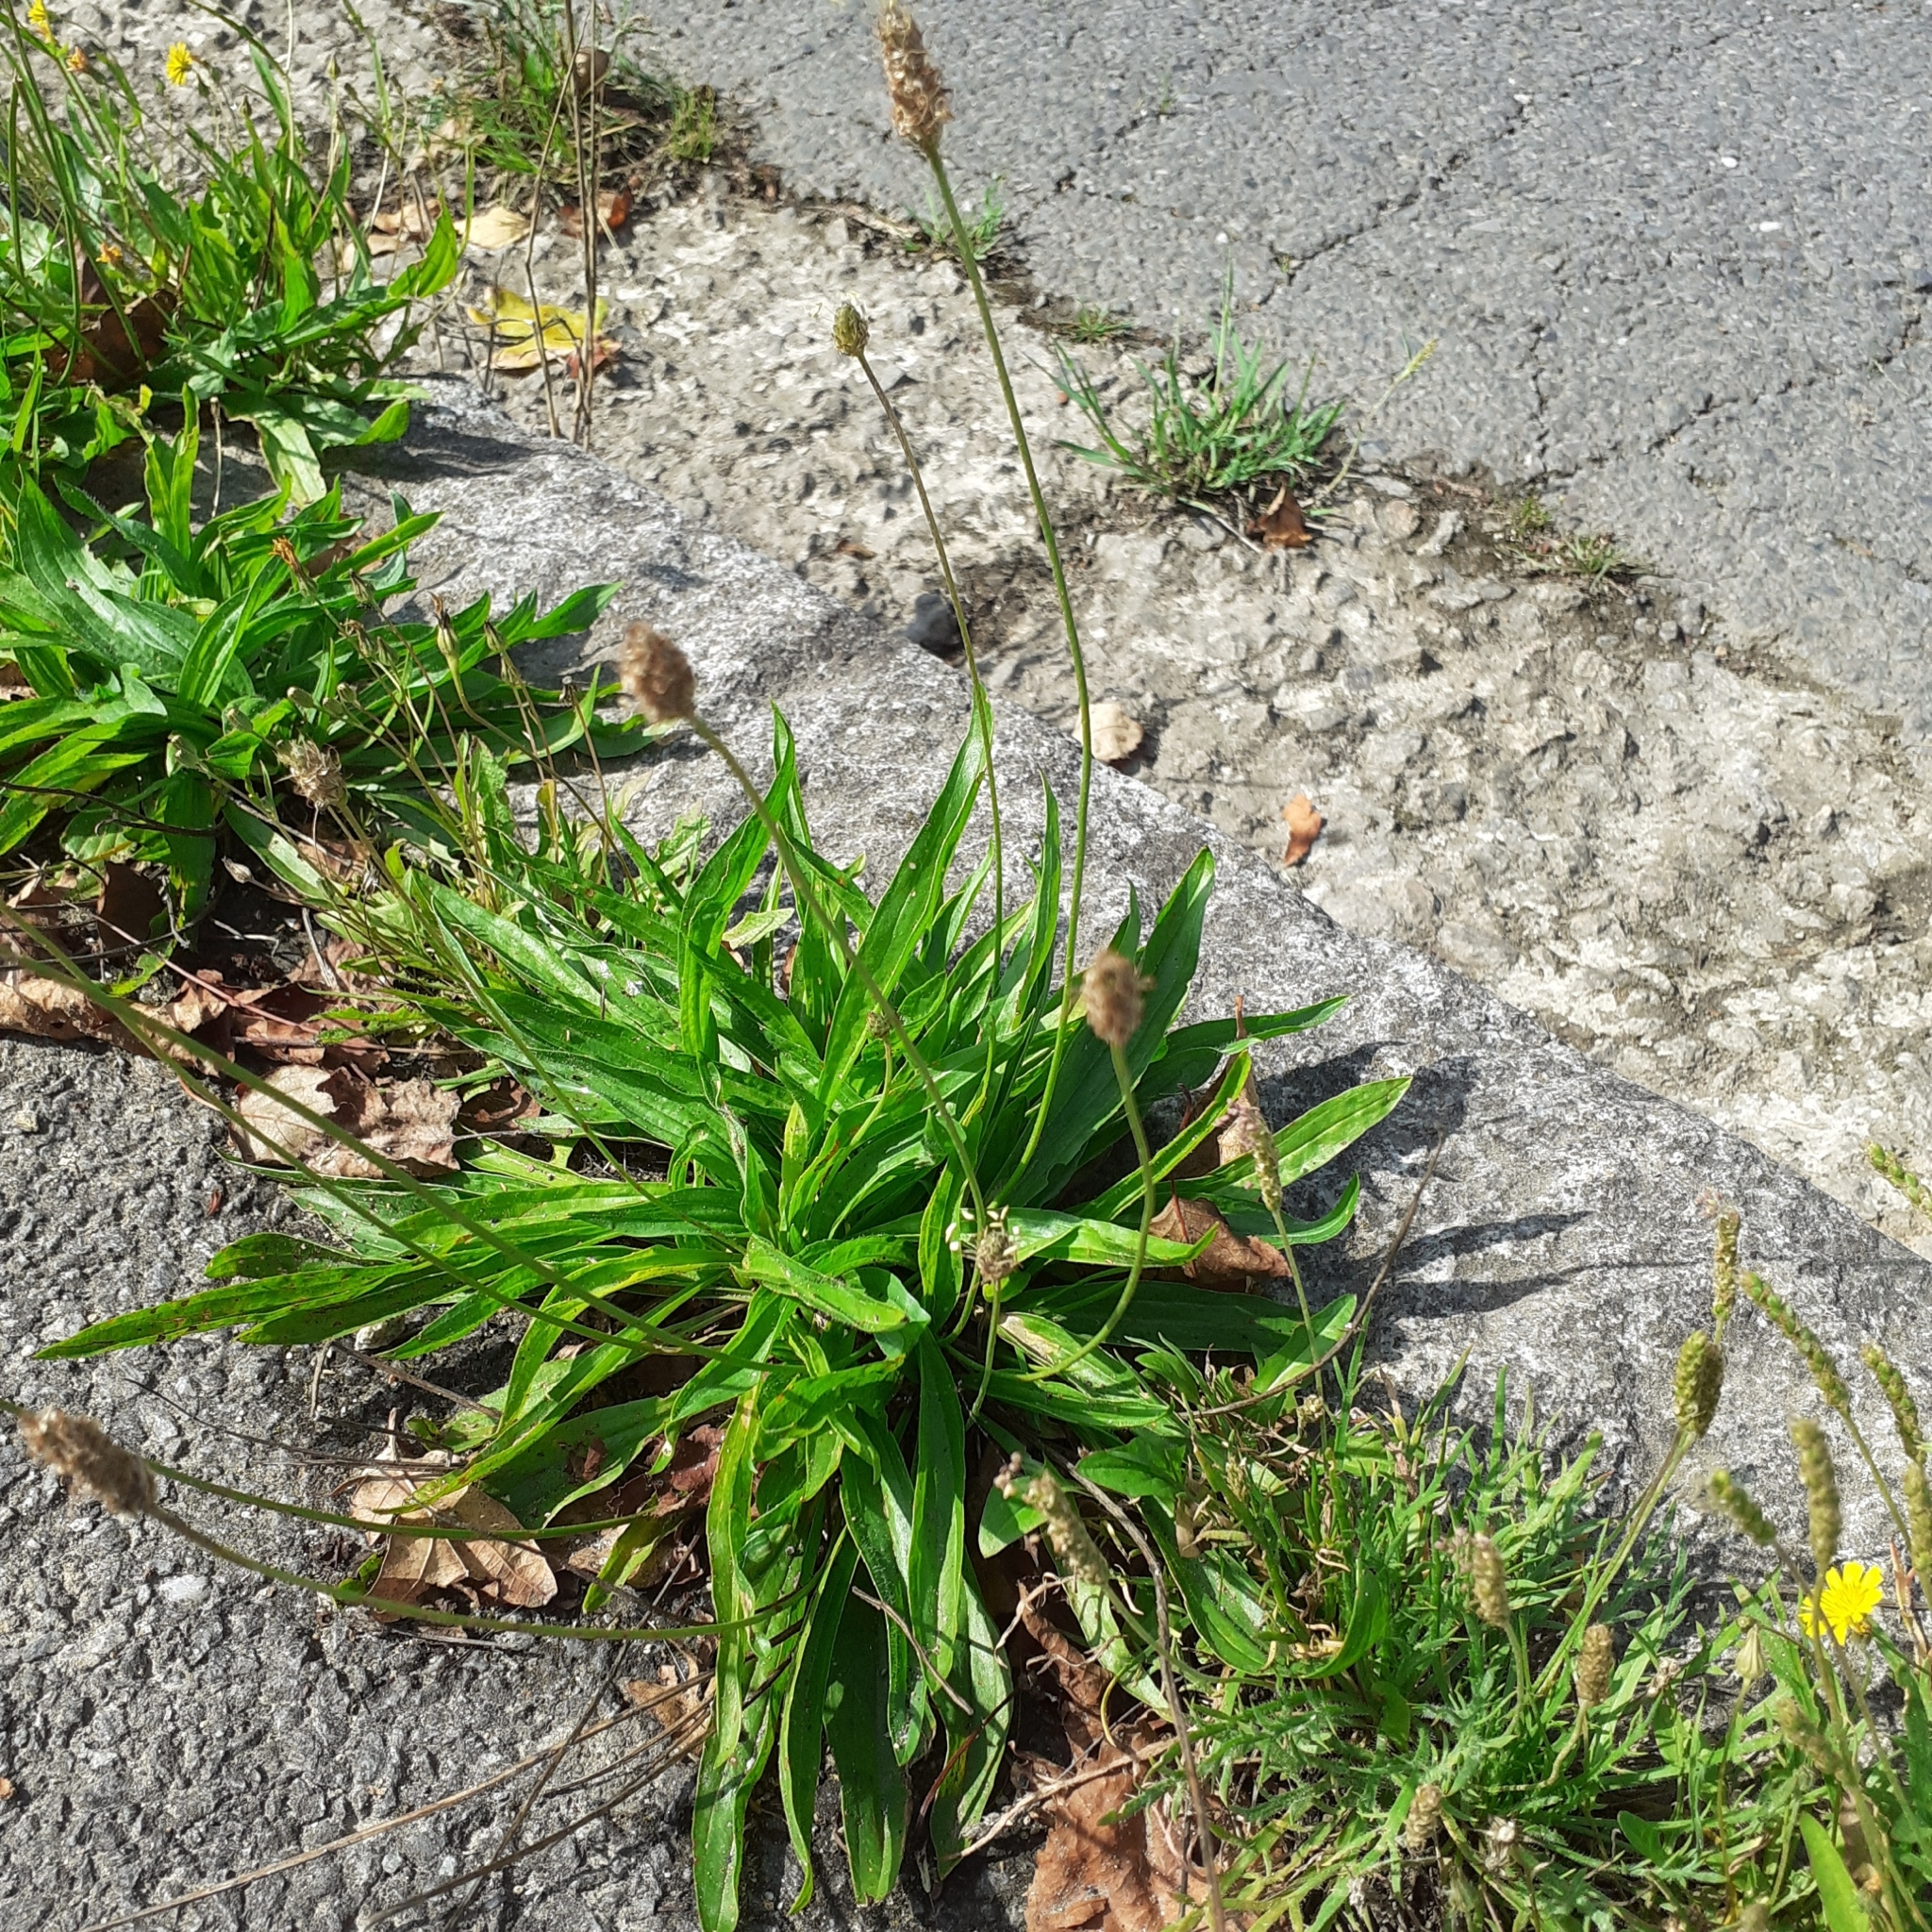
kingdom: Plantae
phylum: Tracheophyta
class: Magnoliopsida
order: Lamiales
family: Plantaginaceae
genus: Plantago
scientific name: Plantago lanceolata
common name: Ribwort plantain
